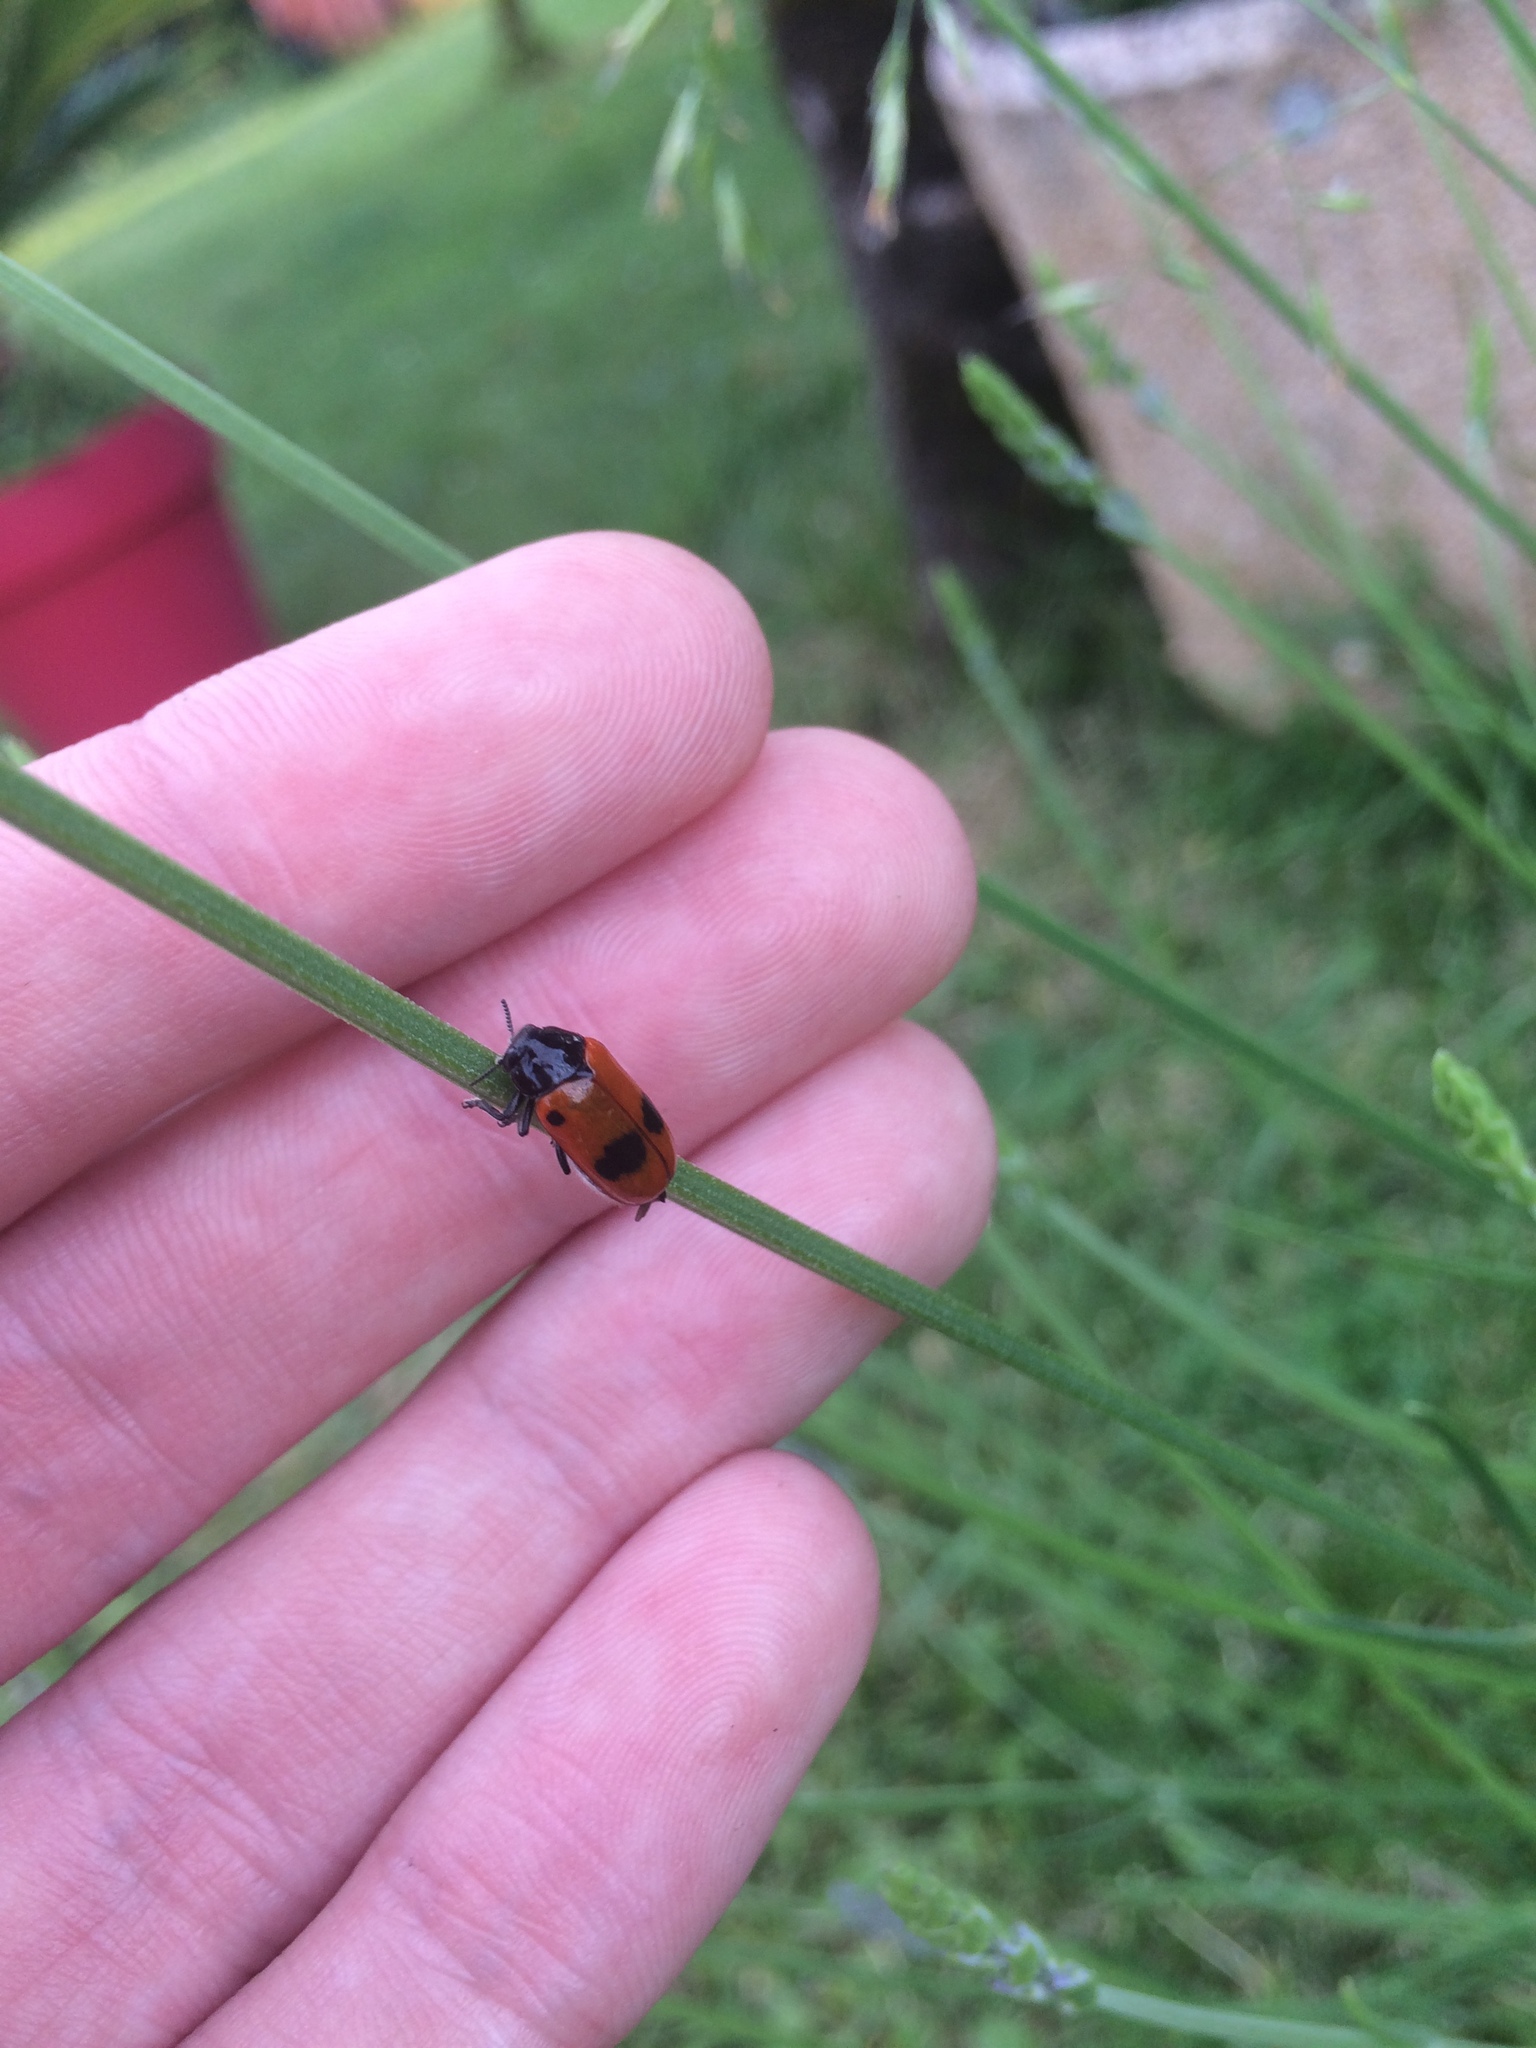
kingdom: Animalia
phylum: Arthropoda
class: Insecta
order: Coleoptera
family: Chrysomelidae
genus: Clytra
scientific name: Clytra laeviuscula
